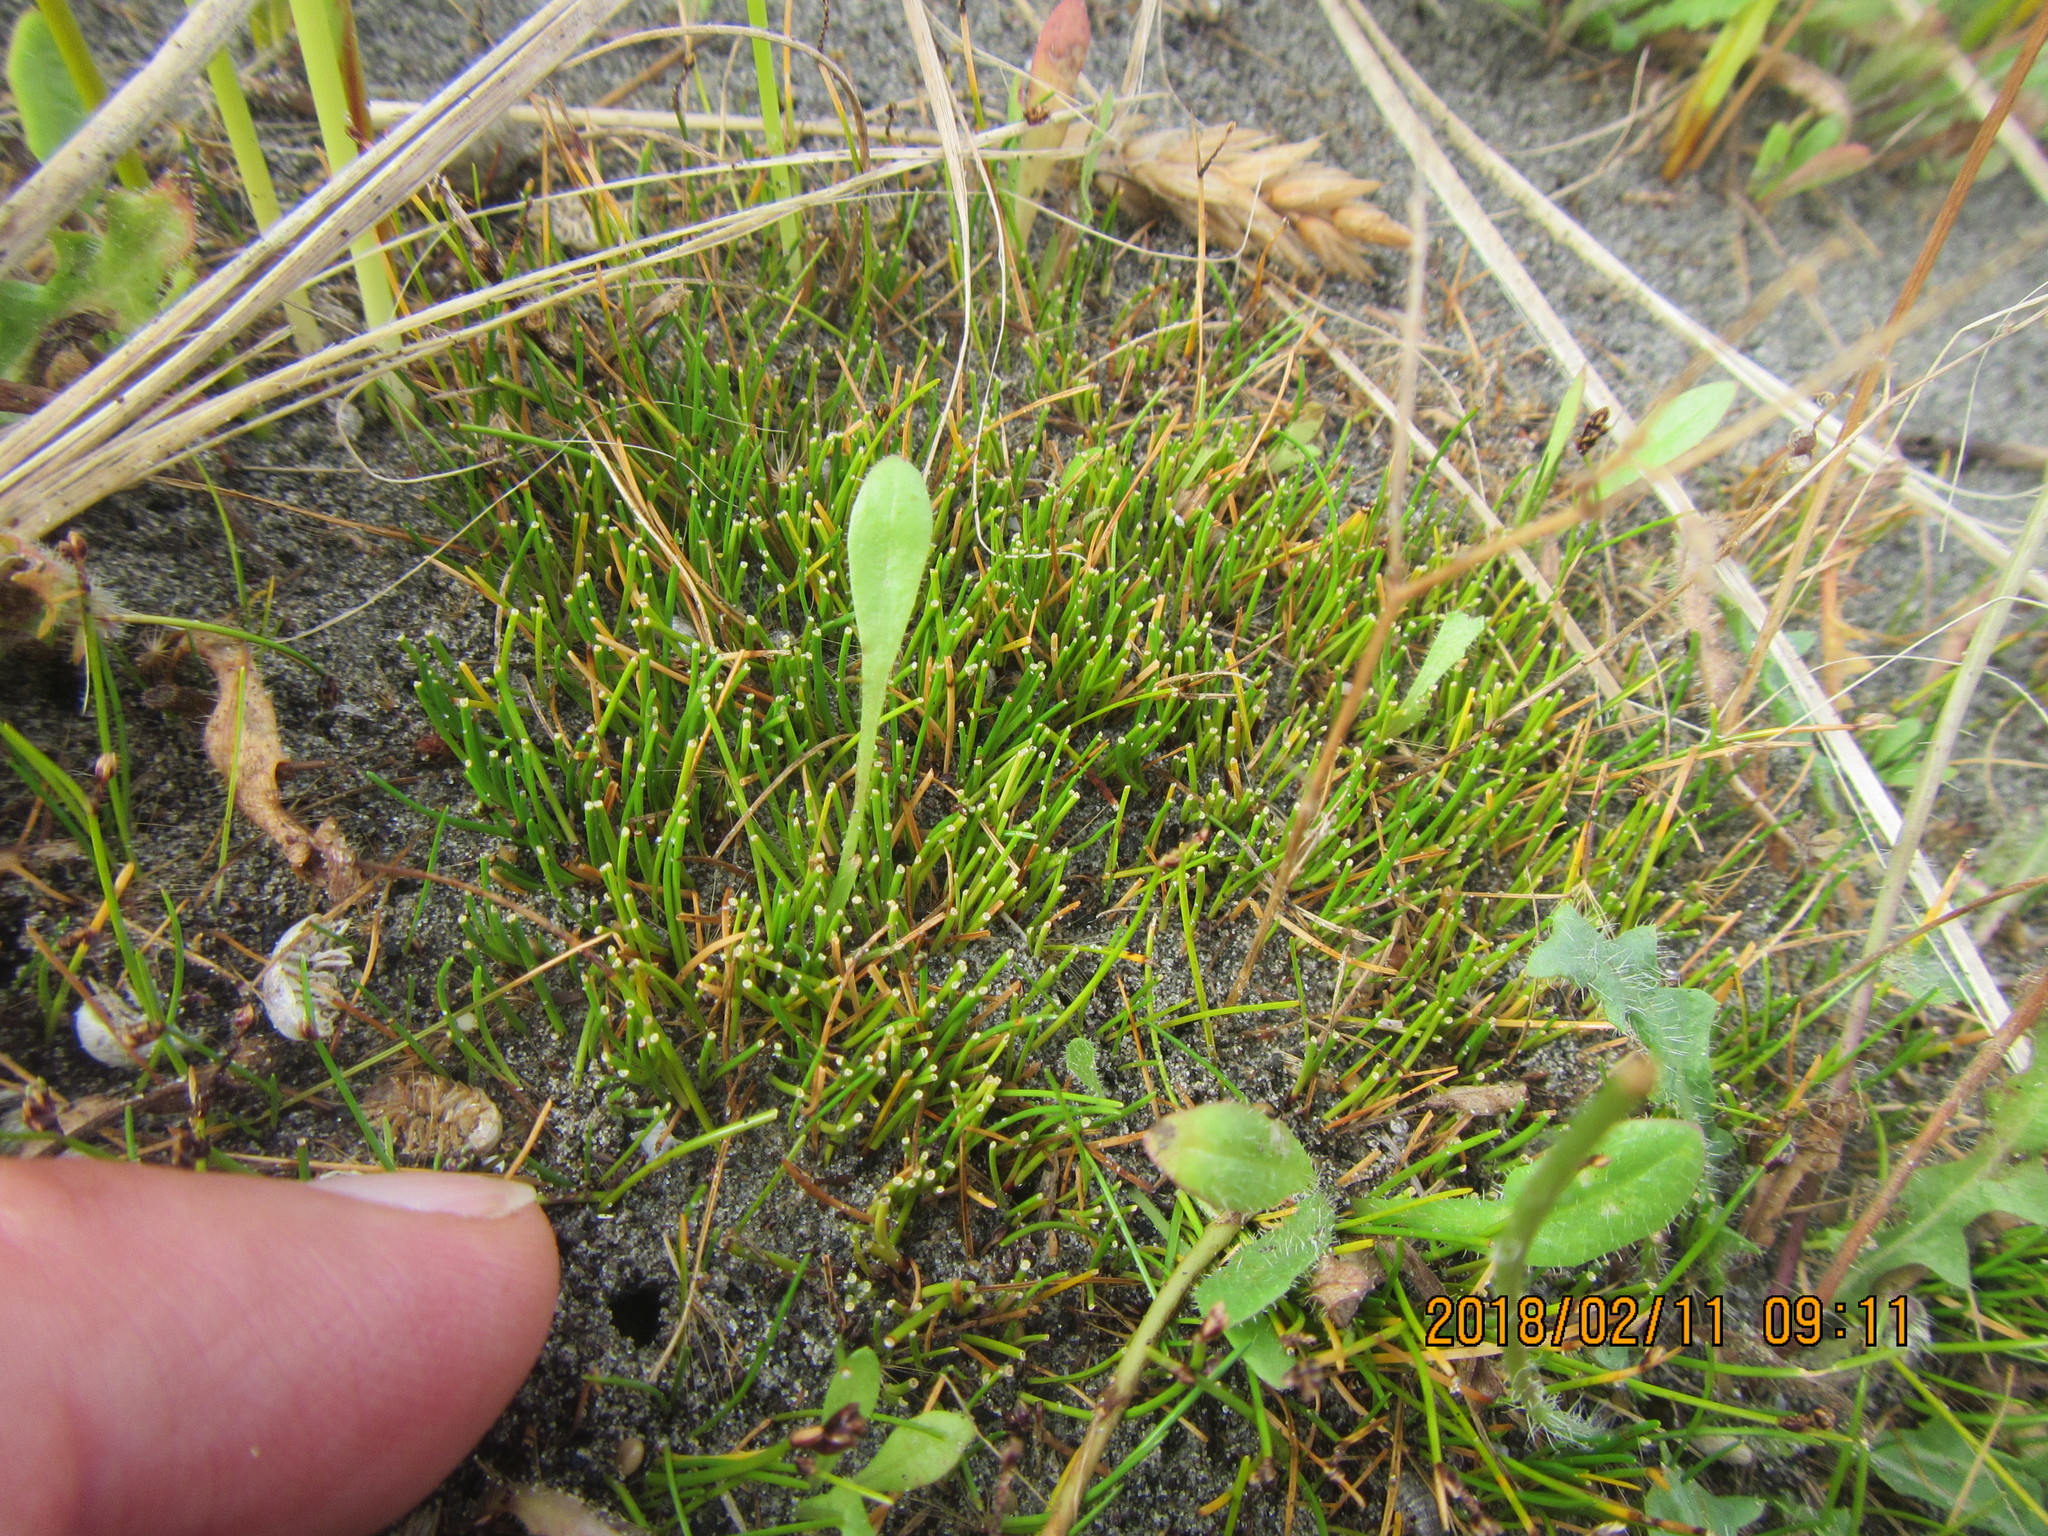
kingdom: Plantae
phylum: Tracheophyta
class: Liliopsida
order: Poales
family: Cyperaceae
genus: Isolepis
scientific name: Isolepis cernua
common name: Slender club-rush
